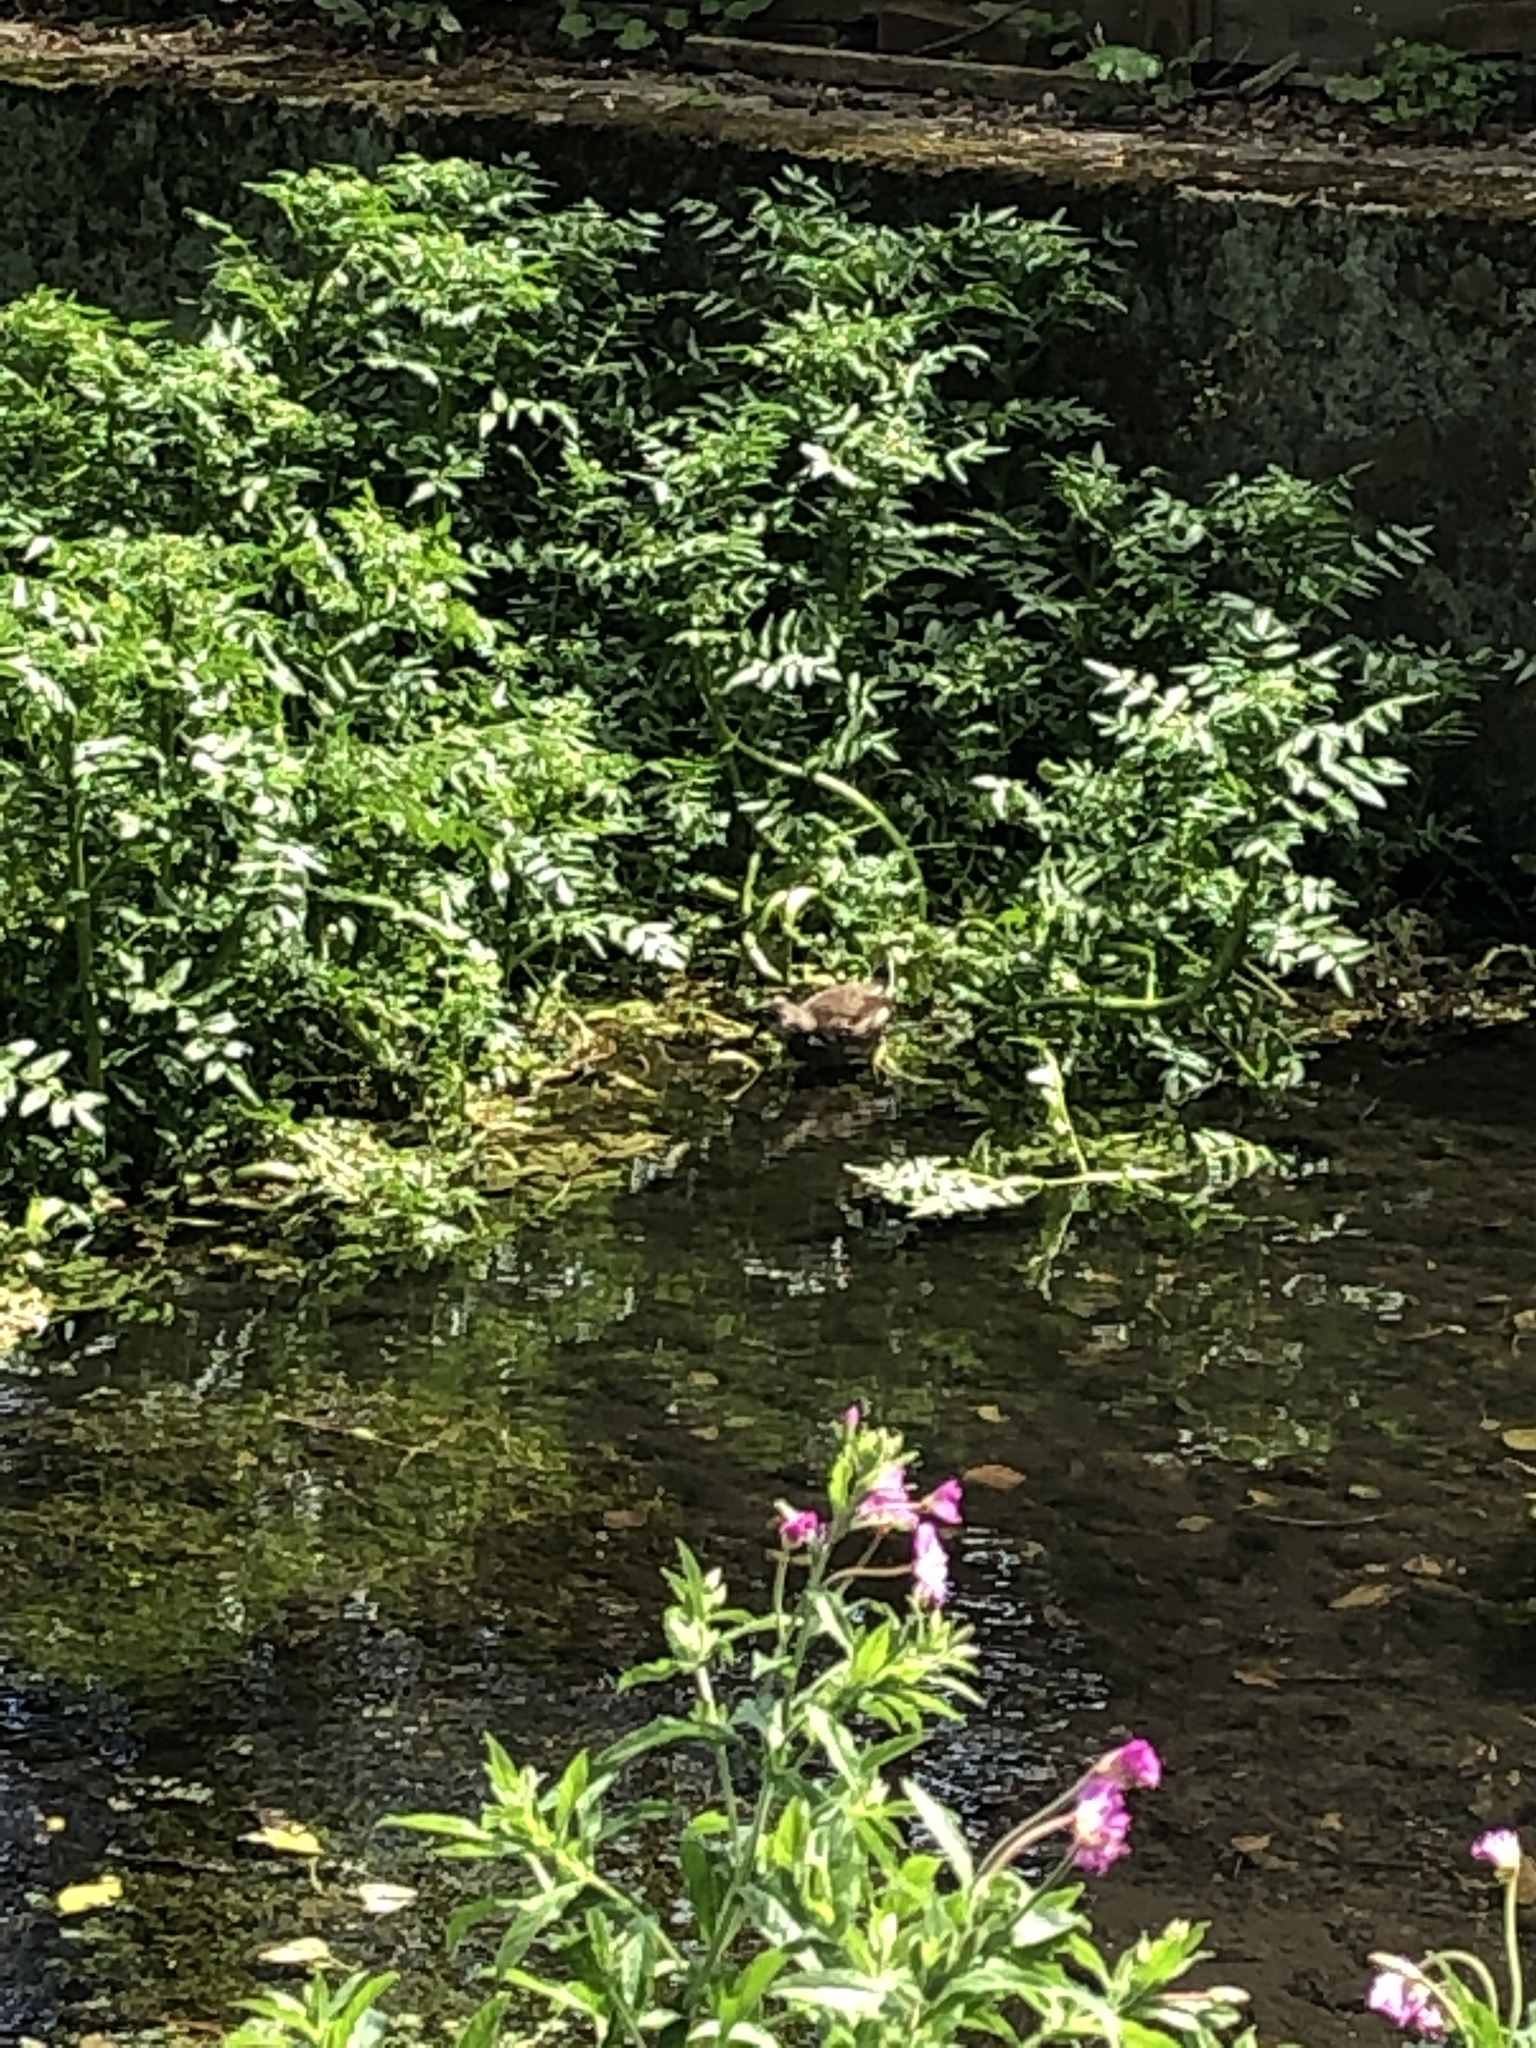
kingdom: Animalia
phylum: Chordata
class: Aves
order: Gruiformes
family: Rallidae
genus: Gallinula
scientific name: Gallinula chloropus
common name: Common moorhen
